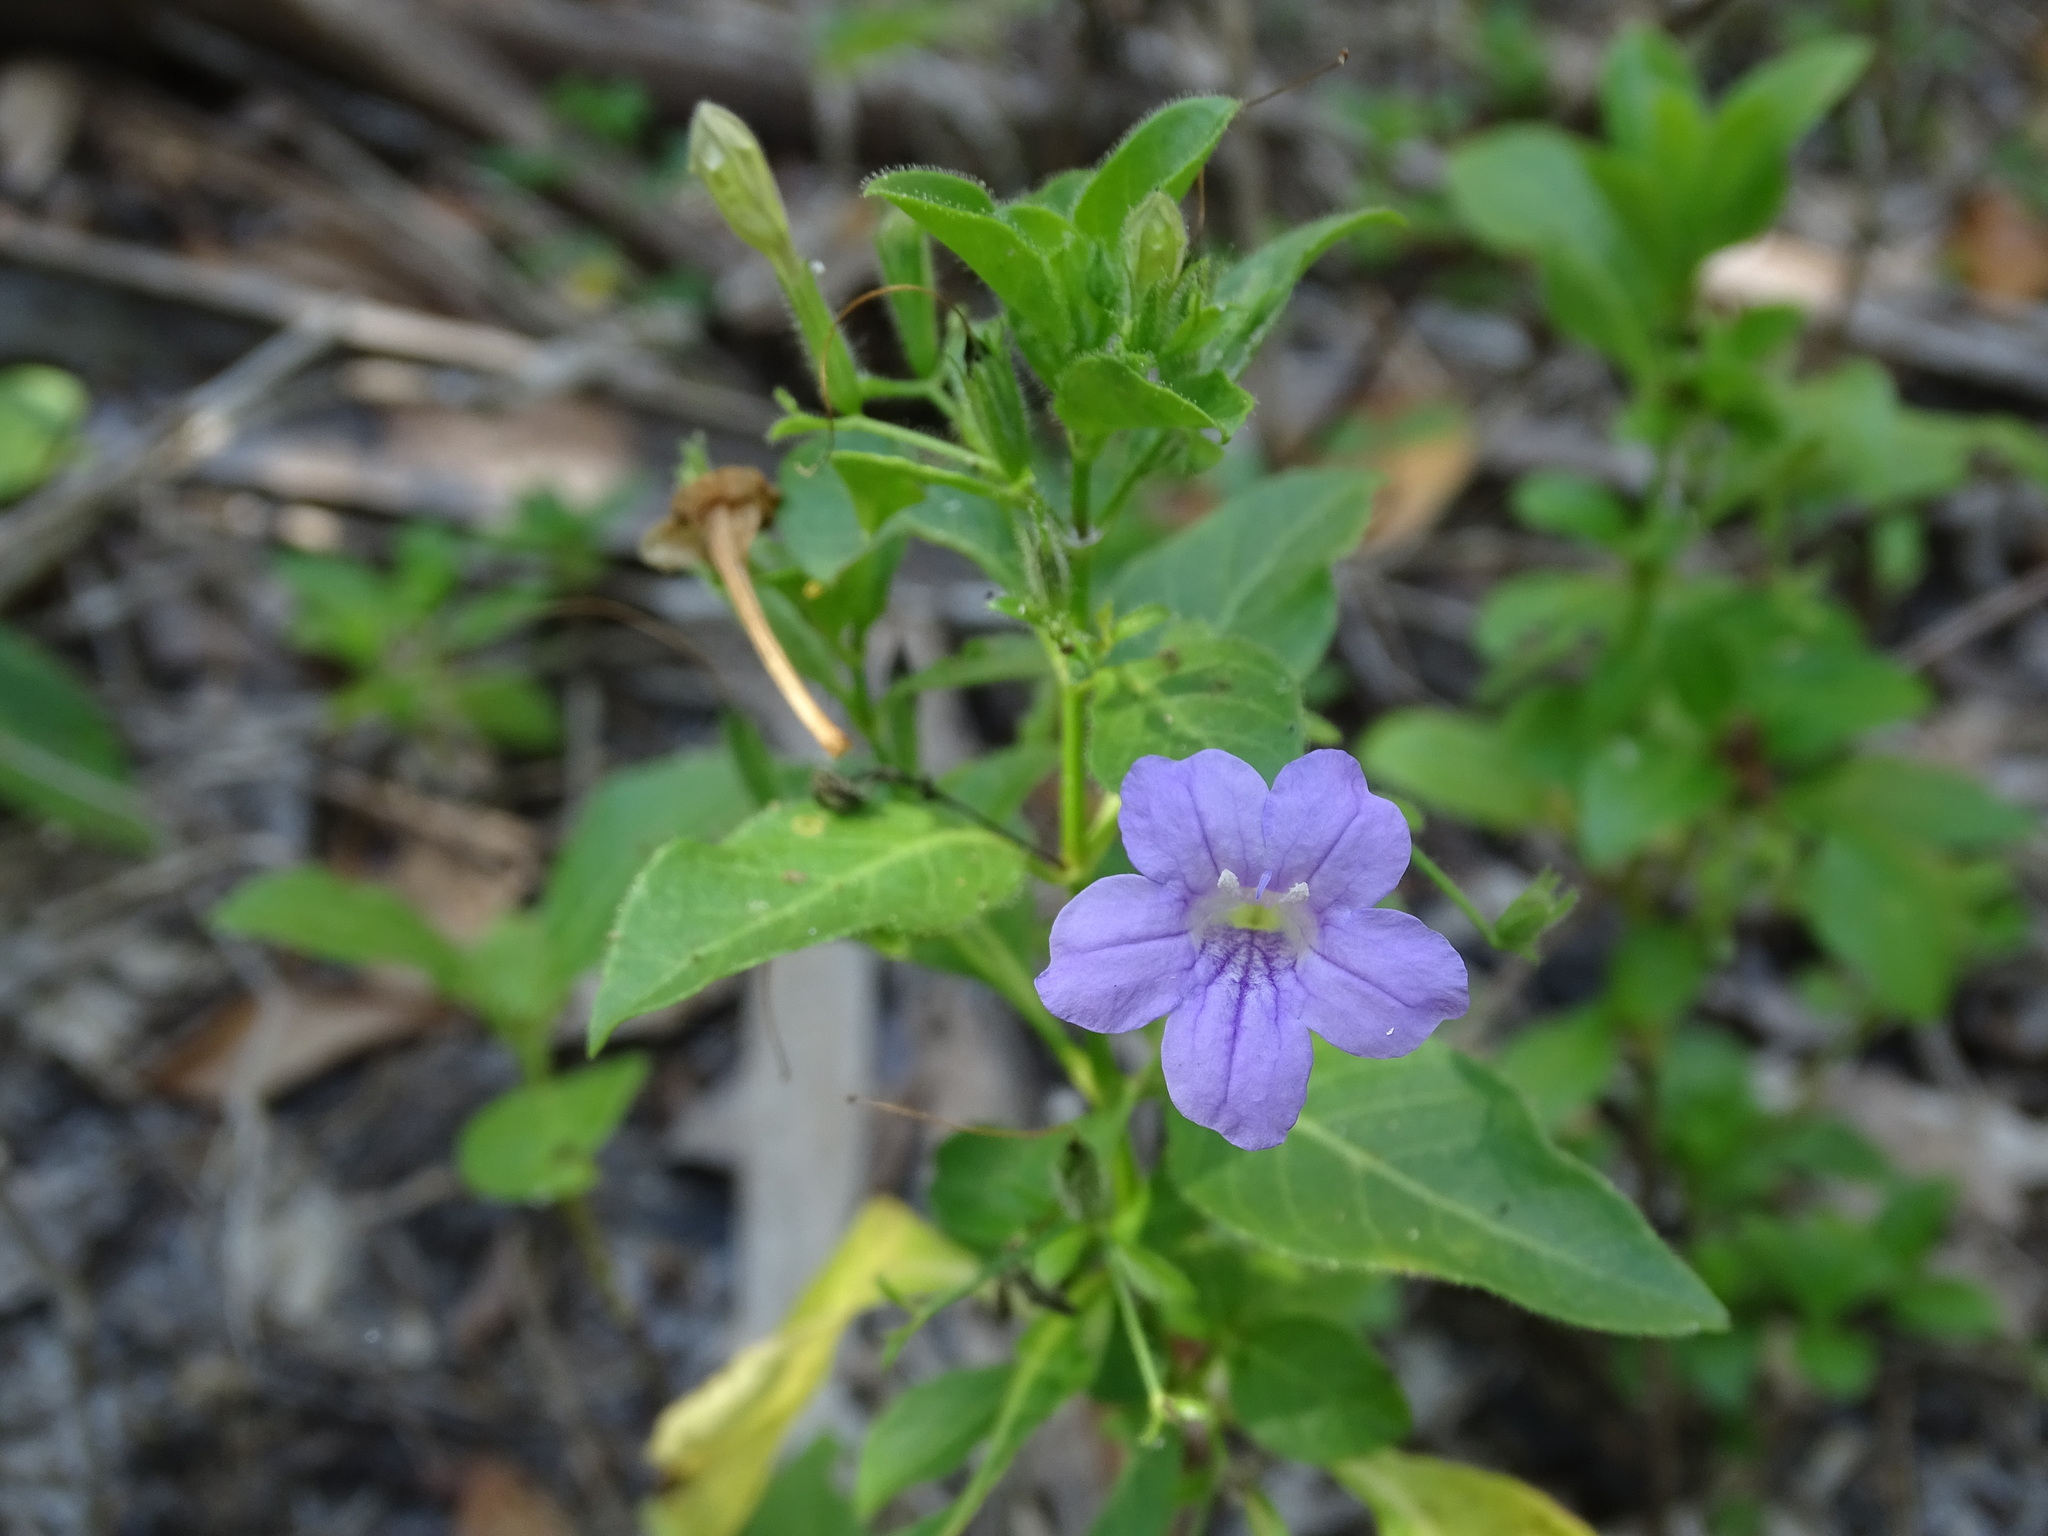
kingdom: Plantae
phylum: Tracheophyta
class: Magnoliopsida
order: Lamiales
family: Acanthaceae
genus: Ruellia
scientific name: Ruellia paniculata
